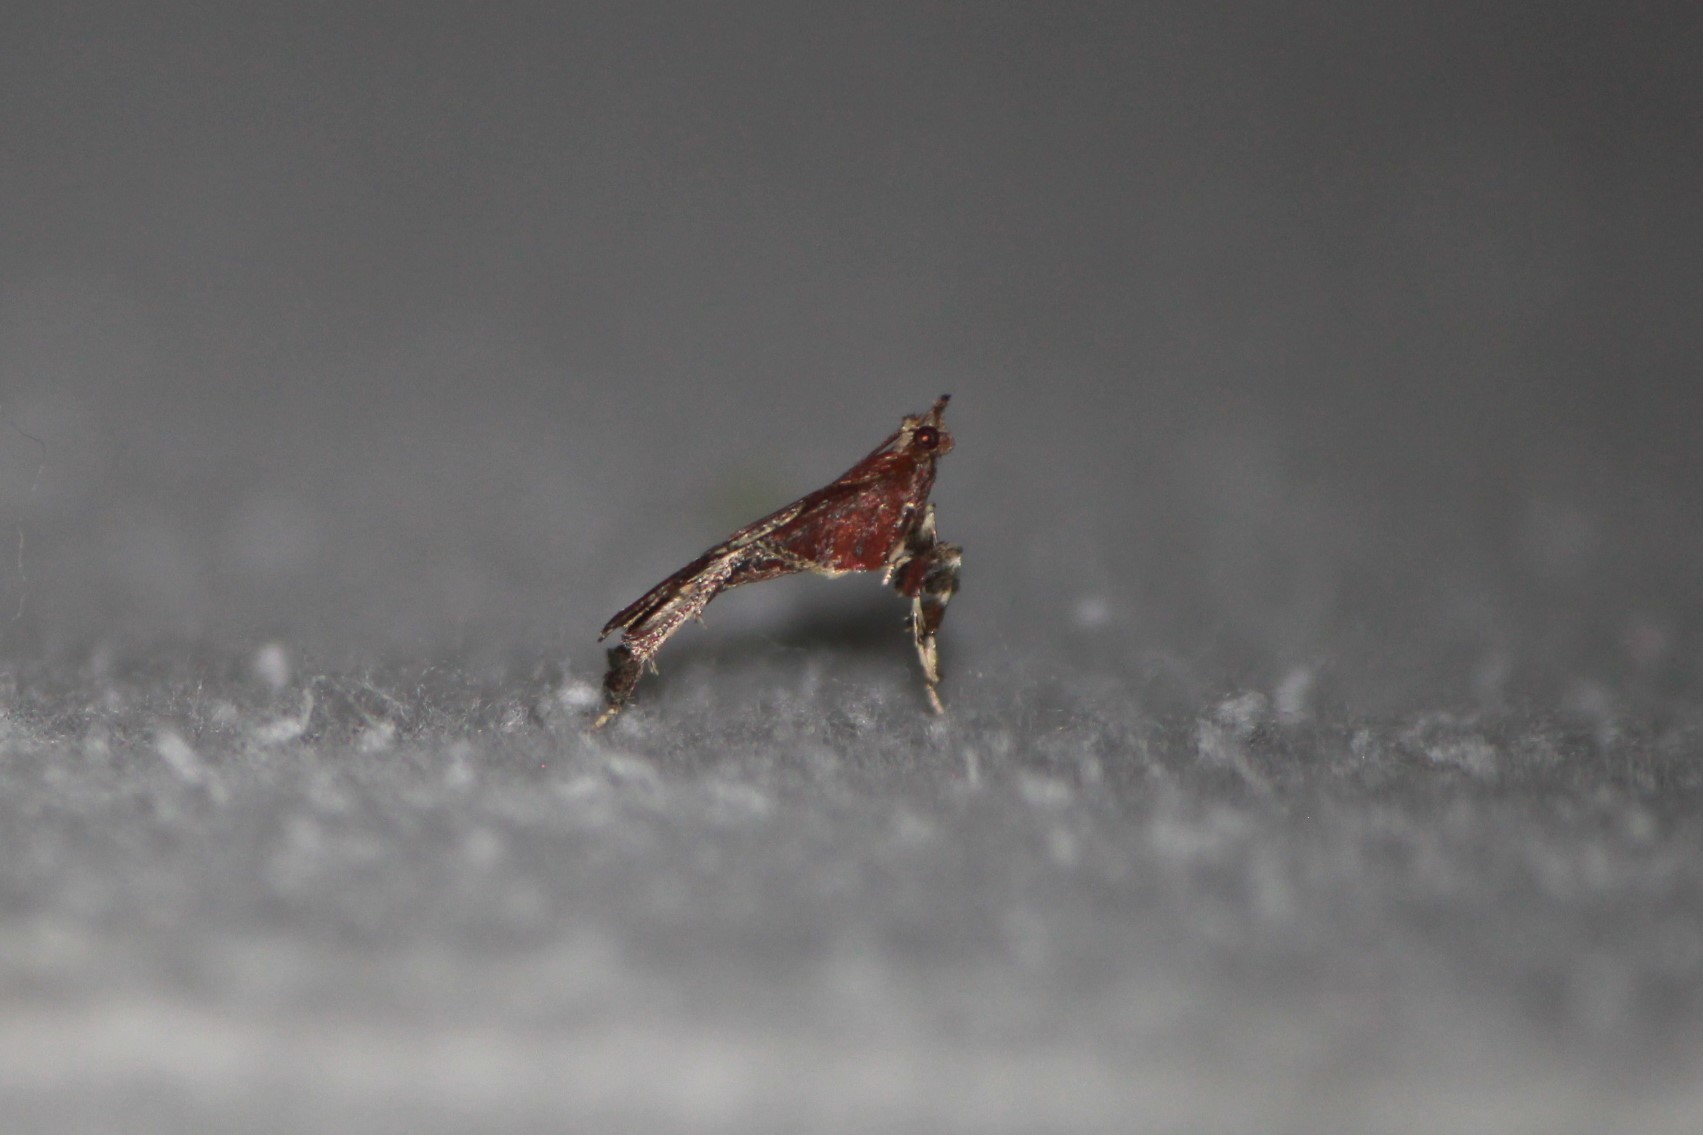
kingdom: Animalia
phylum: Arthropoda
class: Insecta
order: Lepidoptera
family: Pyralidae
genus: Galasa
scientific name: Galasa nigrinodis
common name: Boxwood leaftier moth
